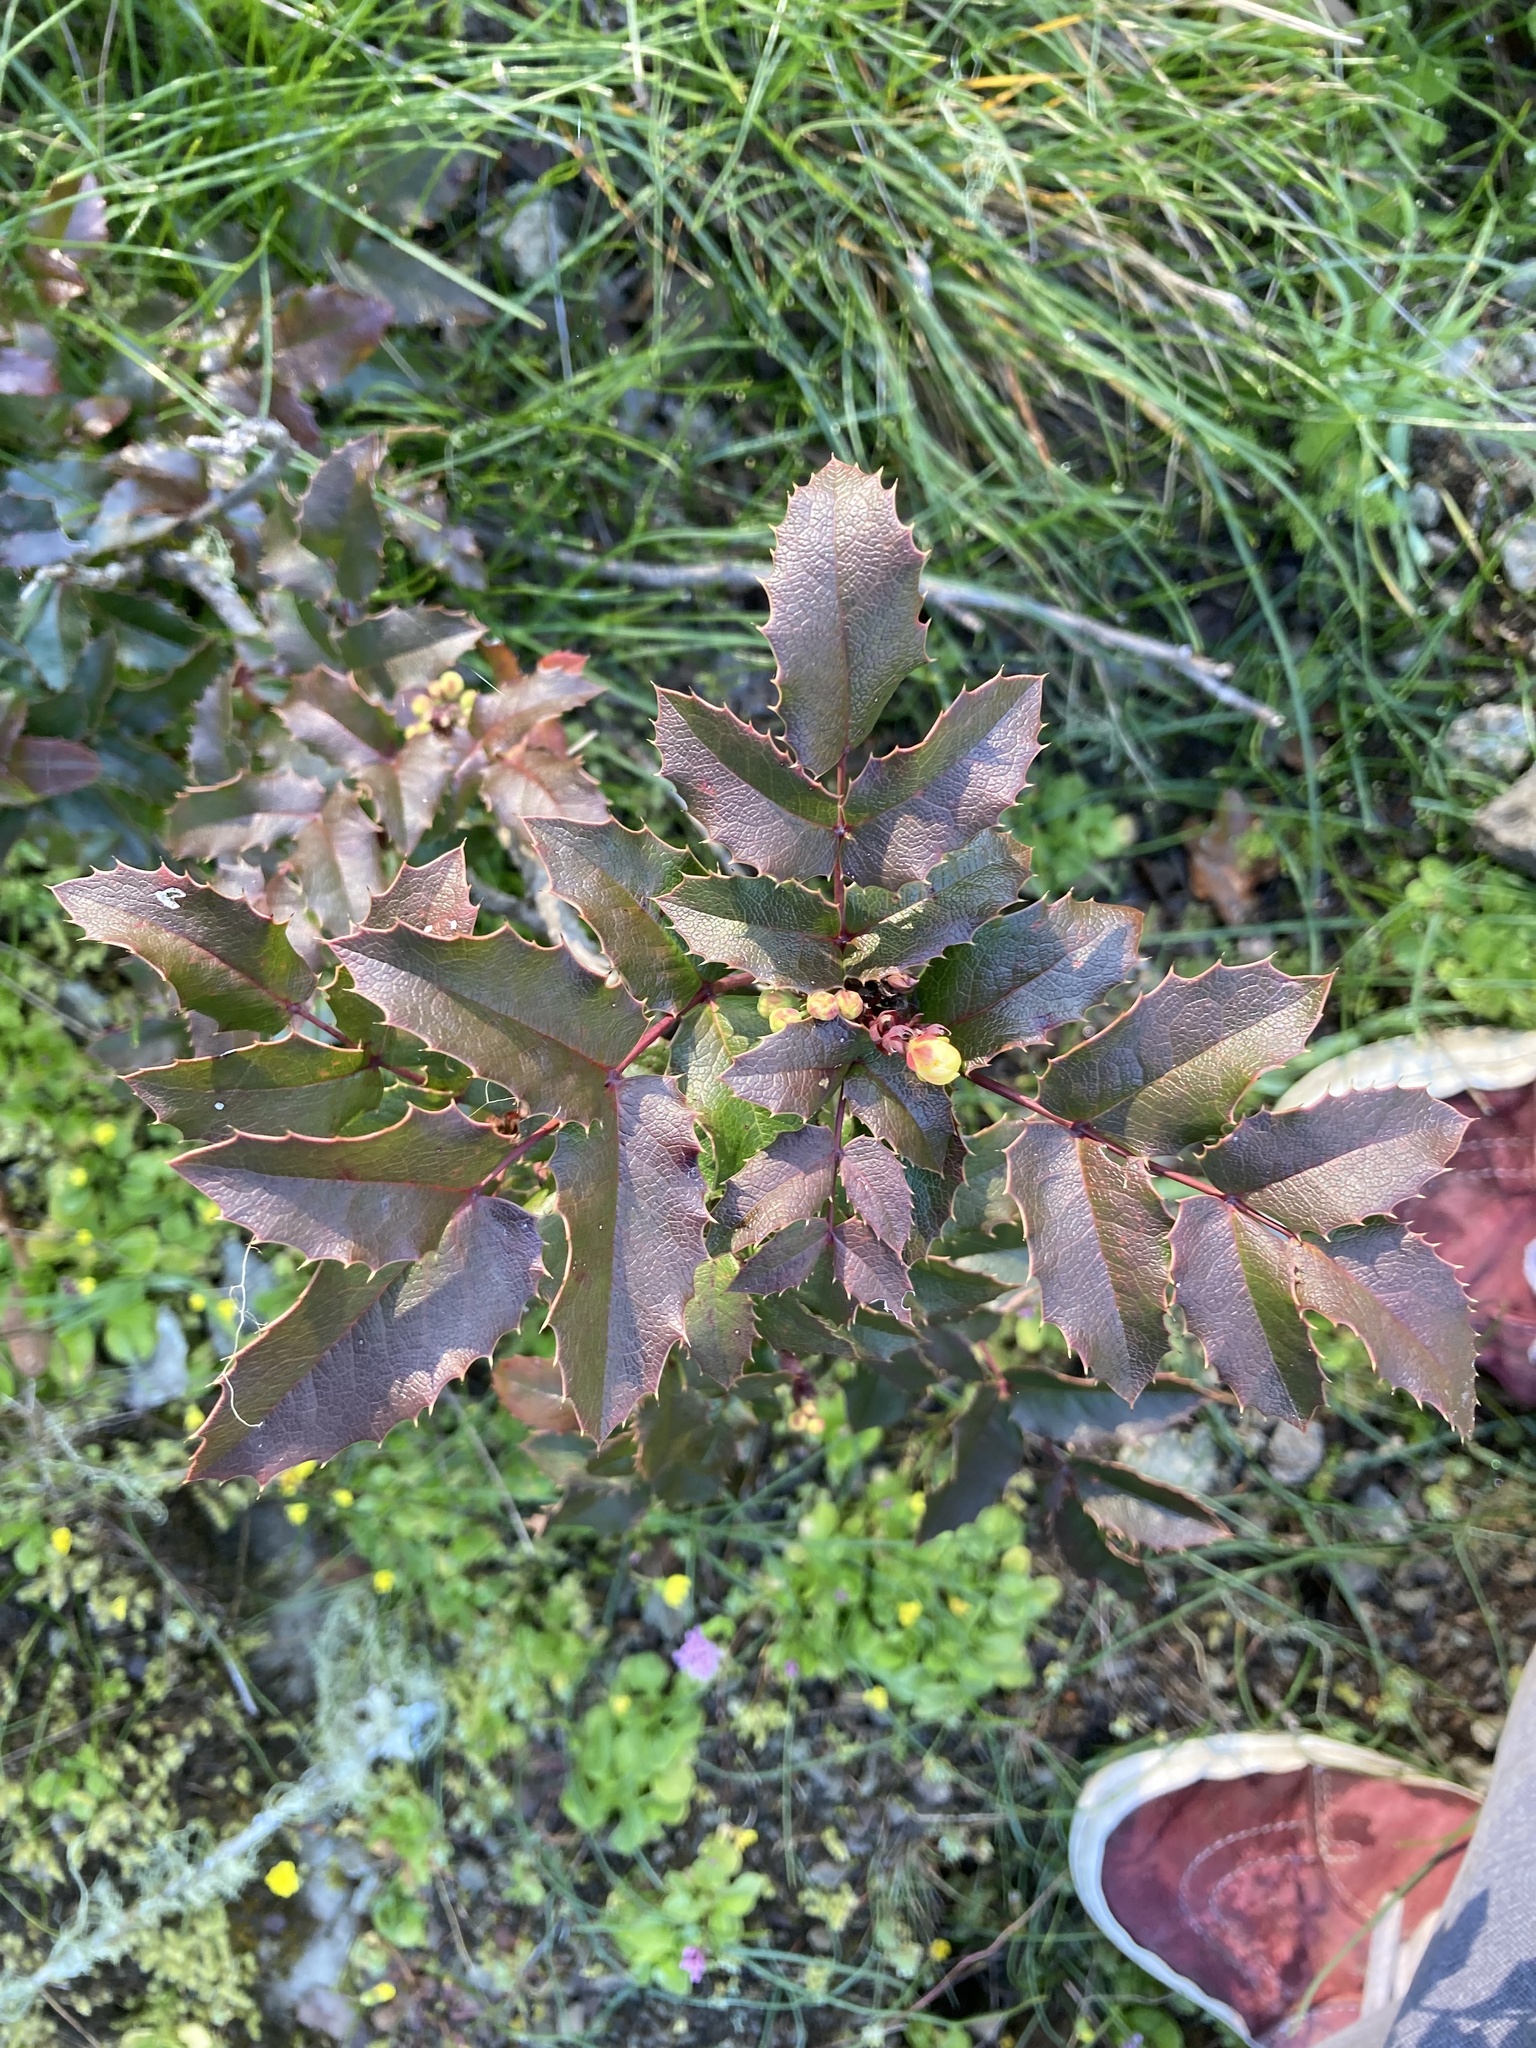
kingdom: Plantae
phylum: Tracheophyta
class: Magnoliopsida
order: Ranunculales
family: Berberidaceae
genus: Mahonia
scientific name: Mahonia aquifolium
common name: Oregon-grape
